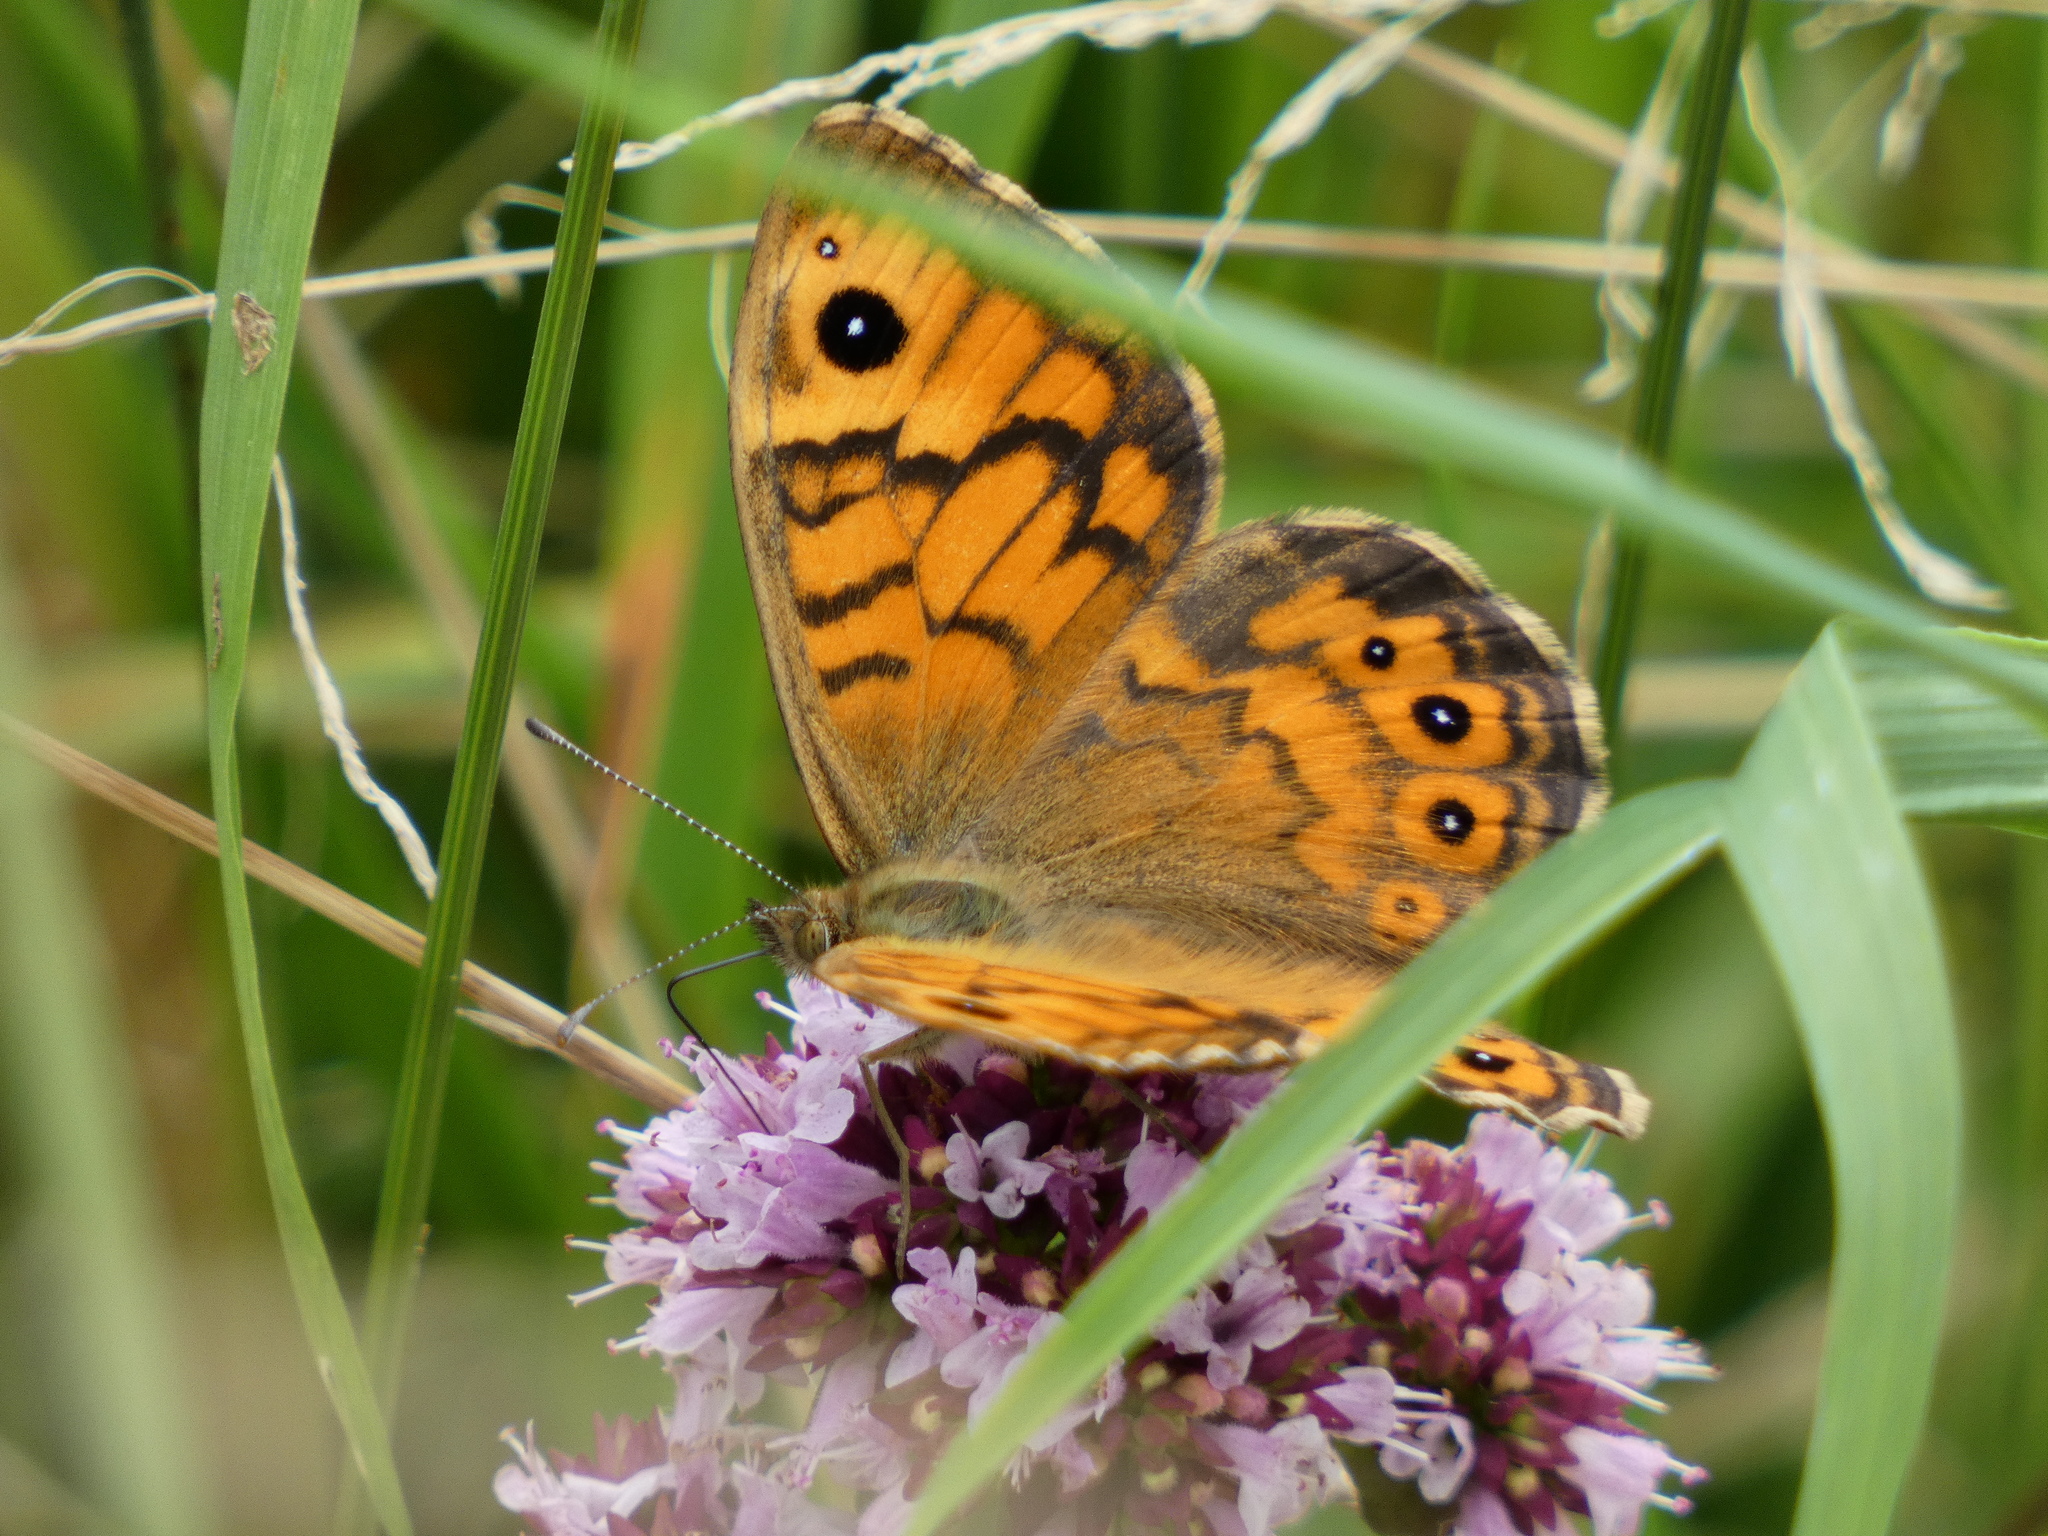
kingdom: Animalia
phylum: Arthropoda
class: Insecta
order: Lepidoptera
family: Nymphalidae
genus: Pararge
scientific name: Pararge Lasiommata megera
